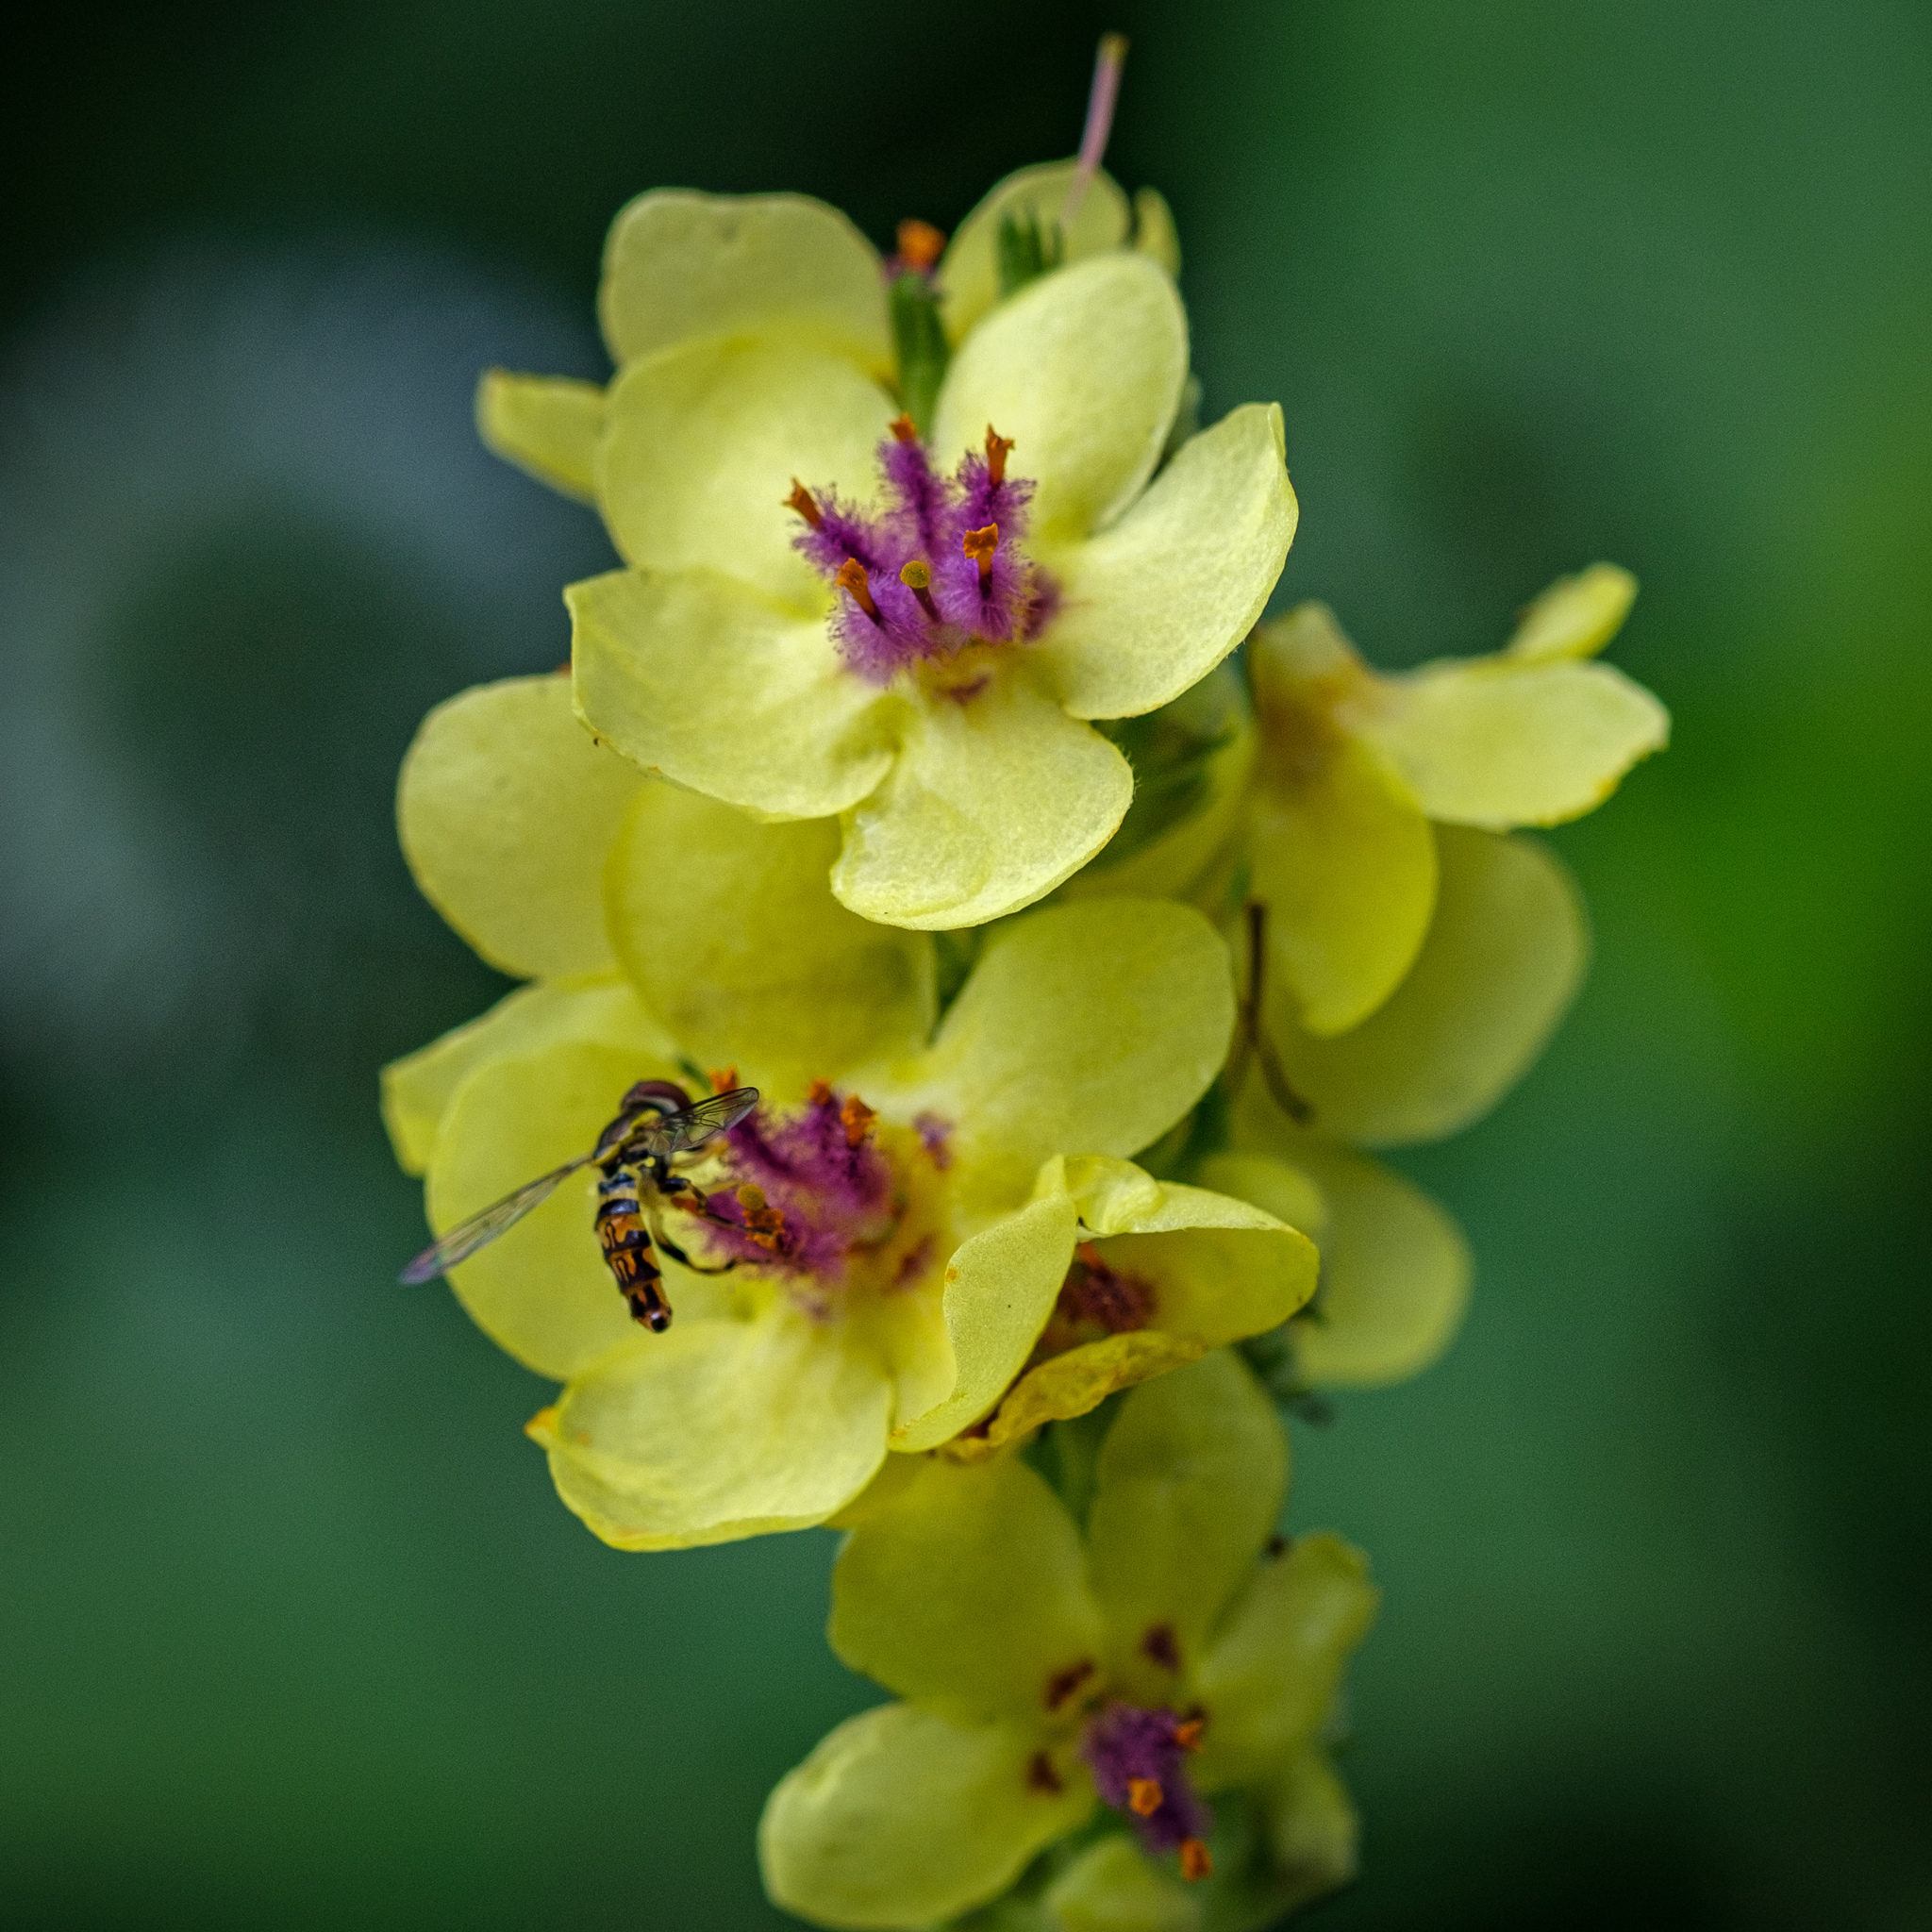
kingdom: Animalia
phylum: Arthropoda
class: Insecta
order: Diptera
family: Syrphidae
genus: Toxomerus
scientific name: Toxomerus geminatus
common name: Eastern calligrapher
